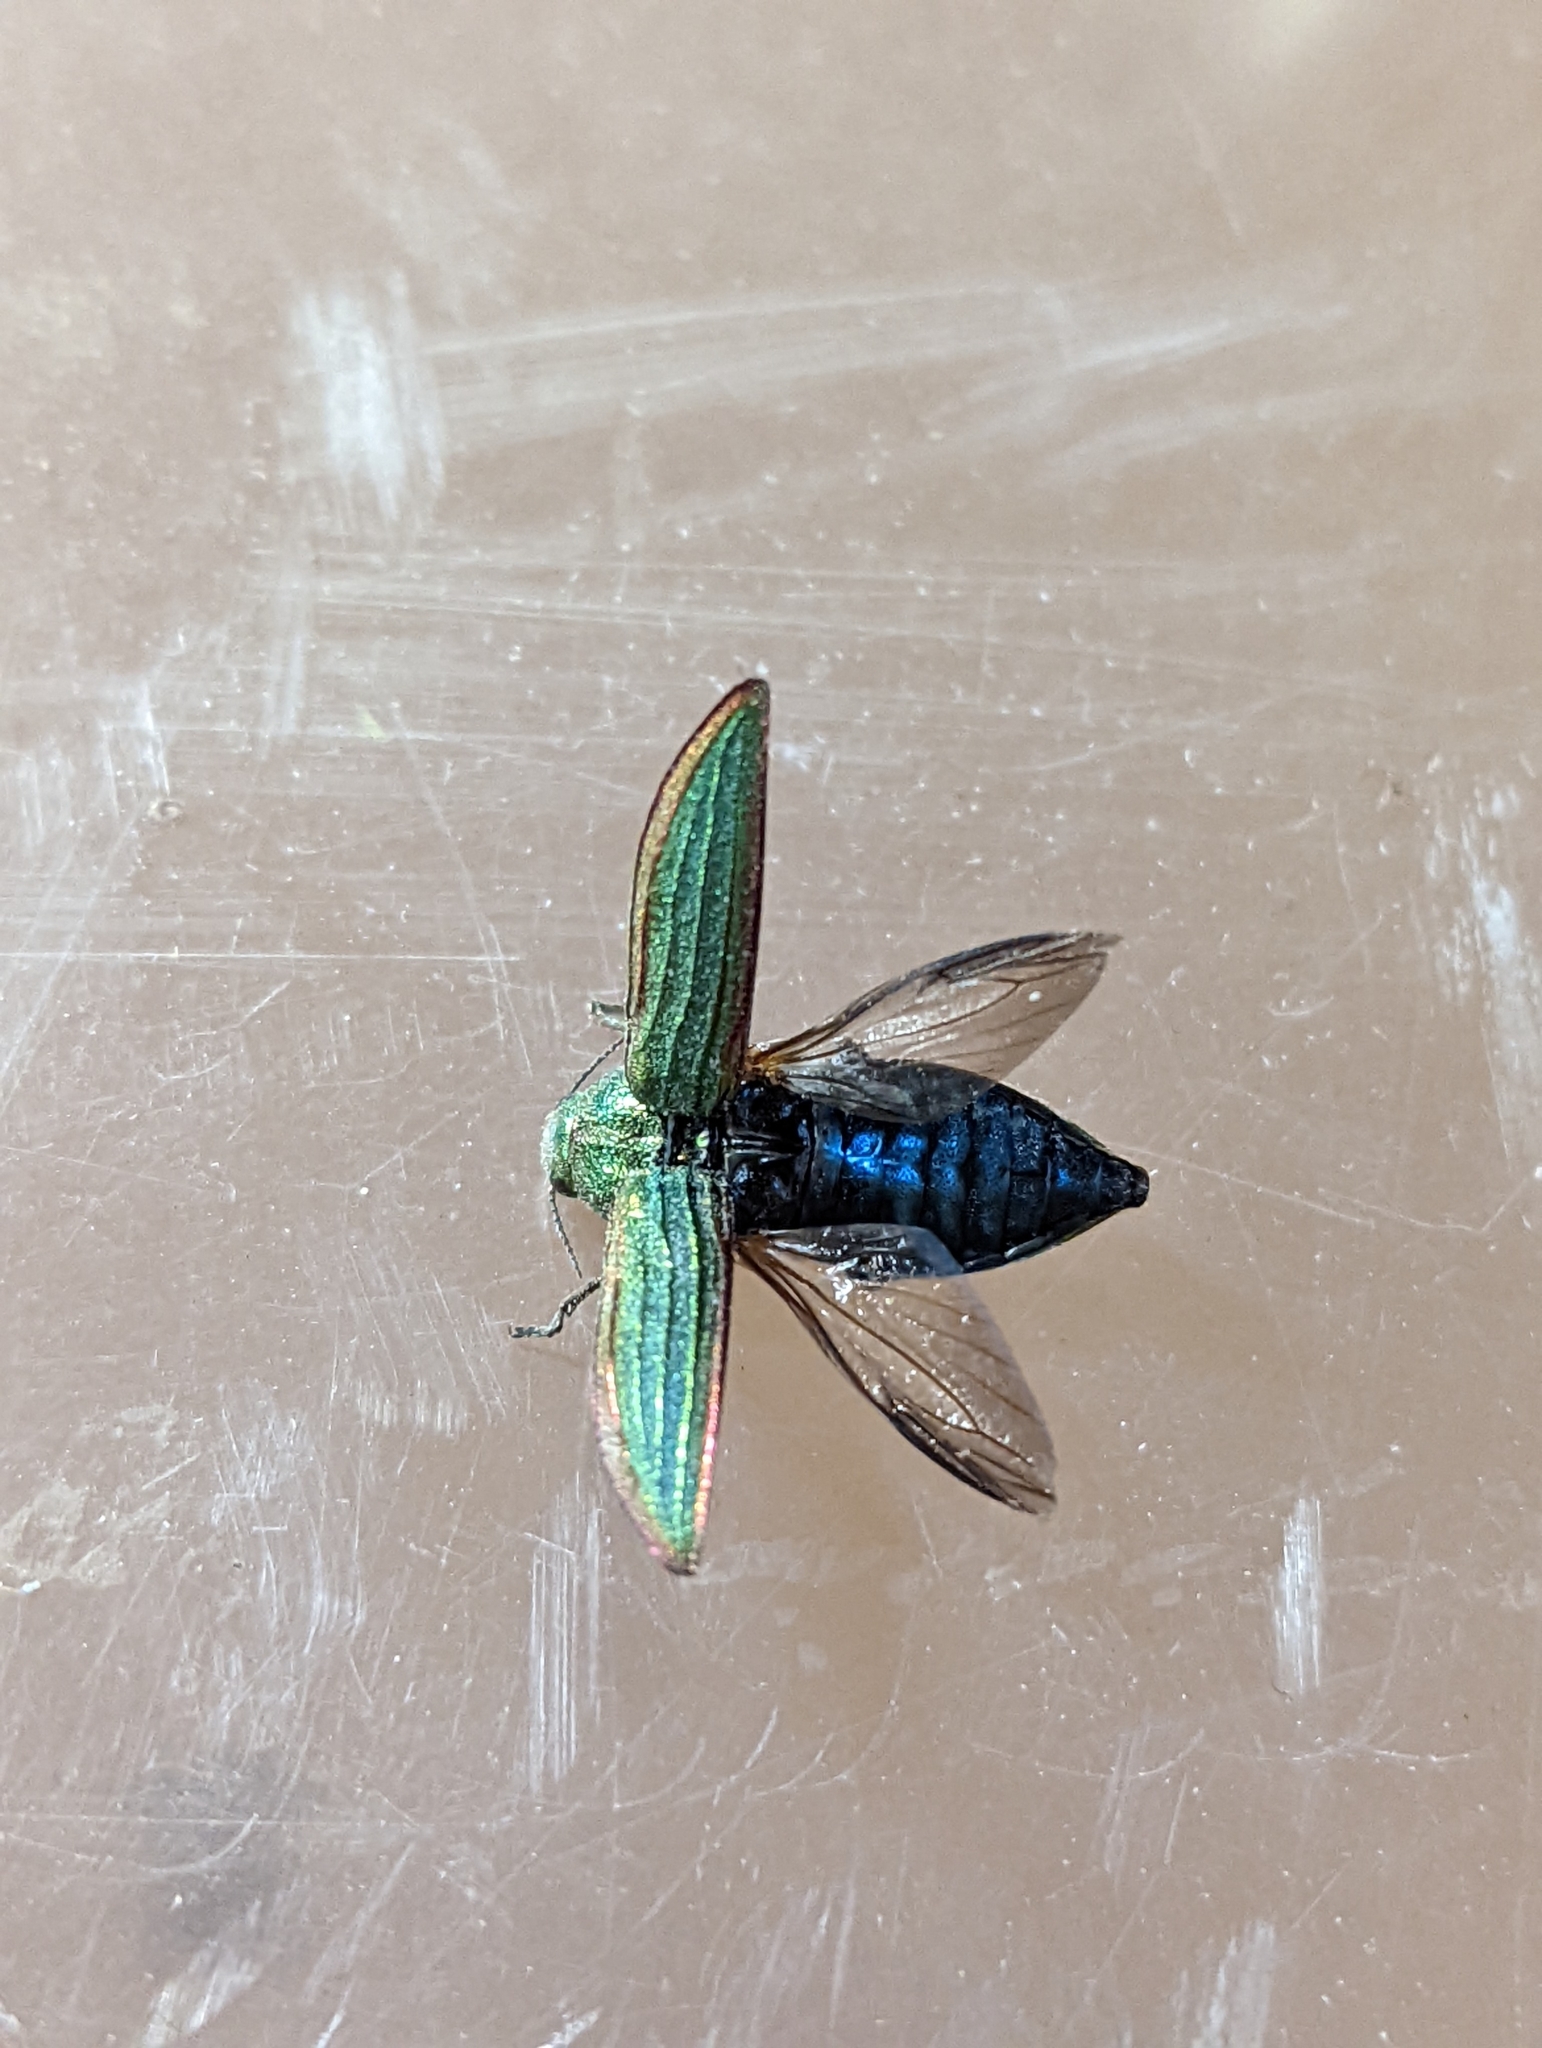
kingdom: Animalia
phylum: Arthropoda
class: Insecta
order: Coleoptera
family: Buprestidae
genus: Buprestis
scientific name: Buprestis aurulenta
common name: Golden buprestid
